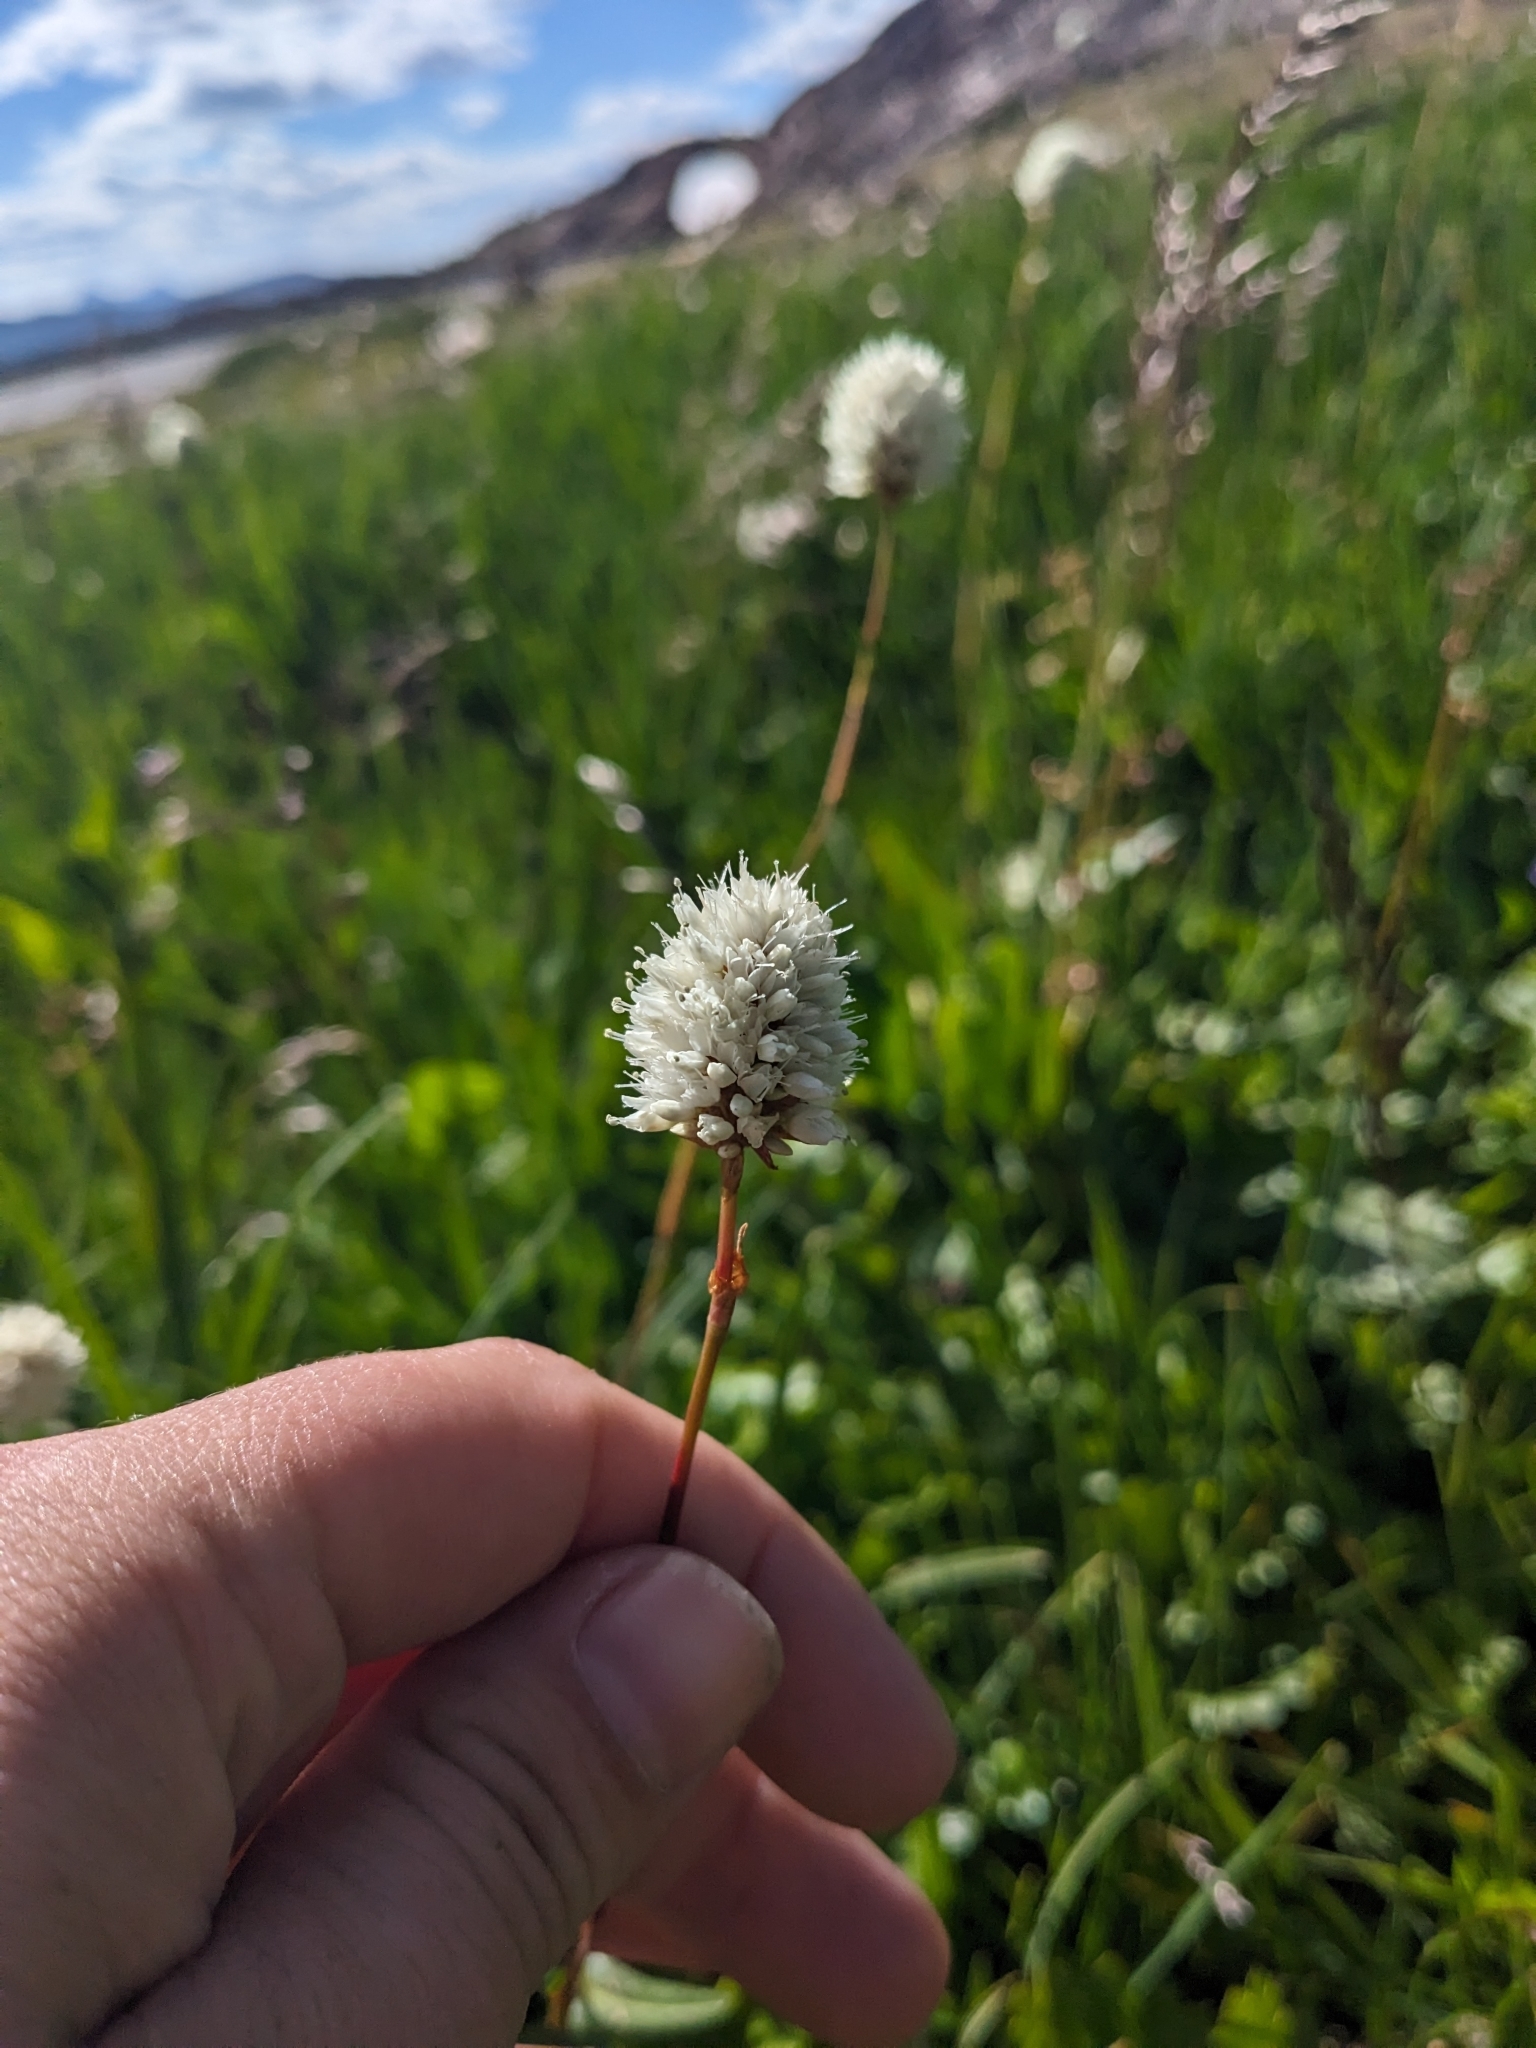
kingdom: Plantae
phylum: Tracheophyta
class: Magnoliopsida
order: Caryophyllales
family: Polygonaceae
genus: Bistorta
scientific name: Bistorta bistortoides
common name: American bistort
